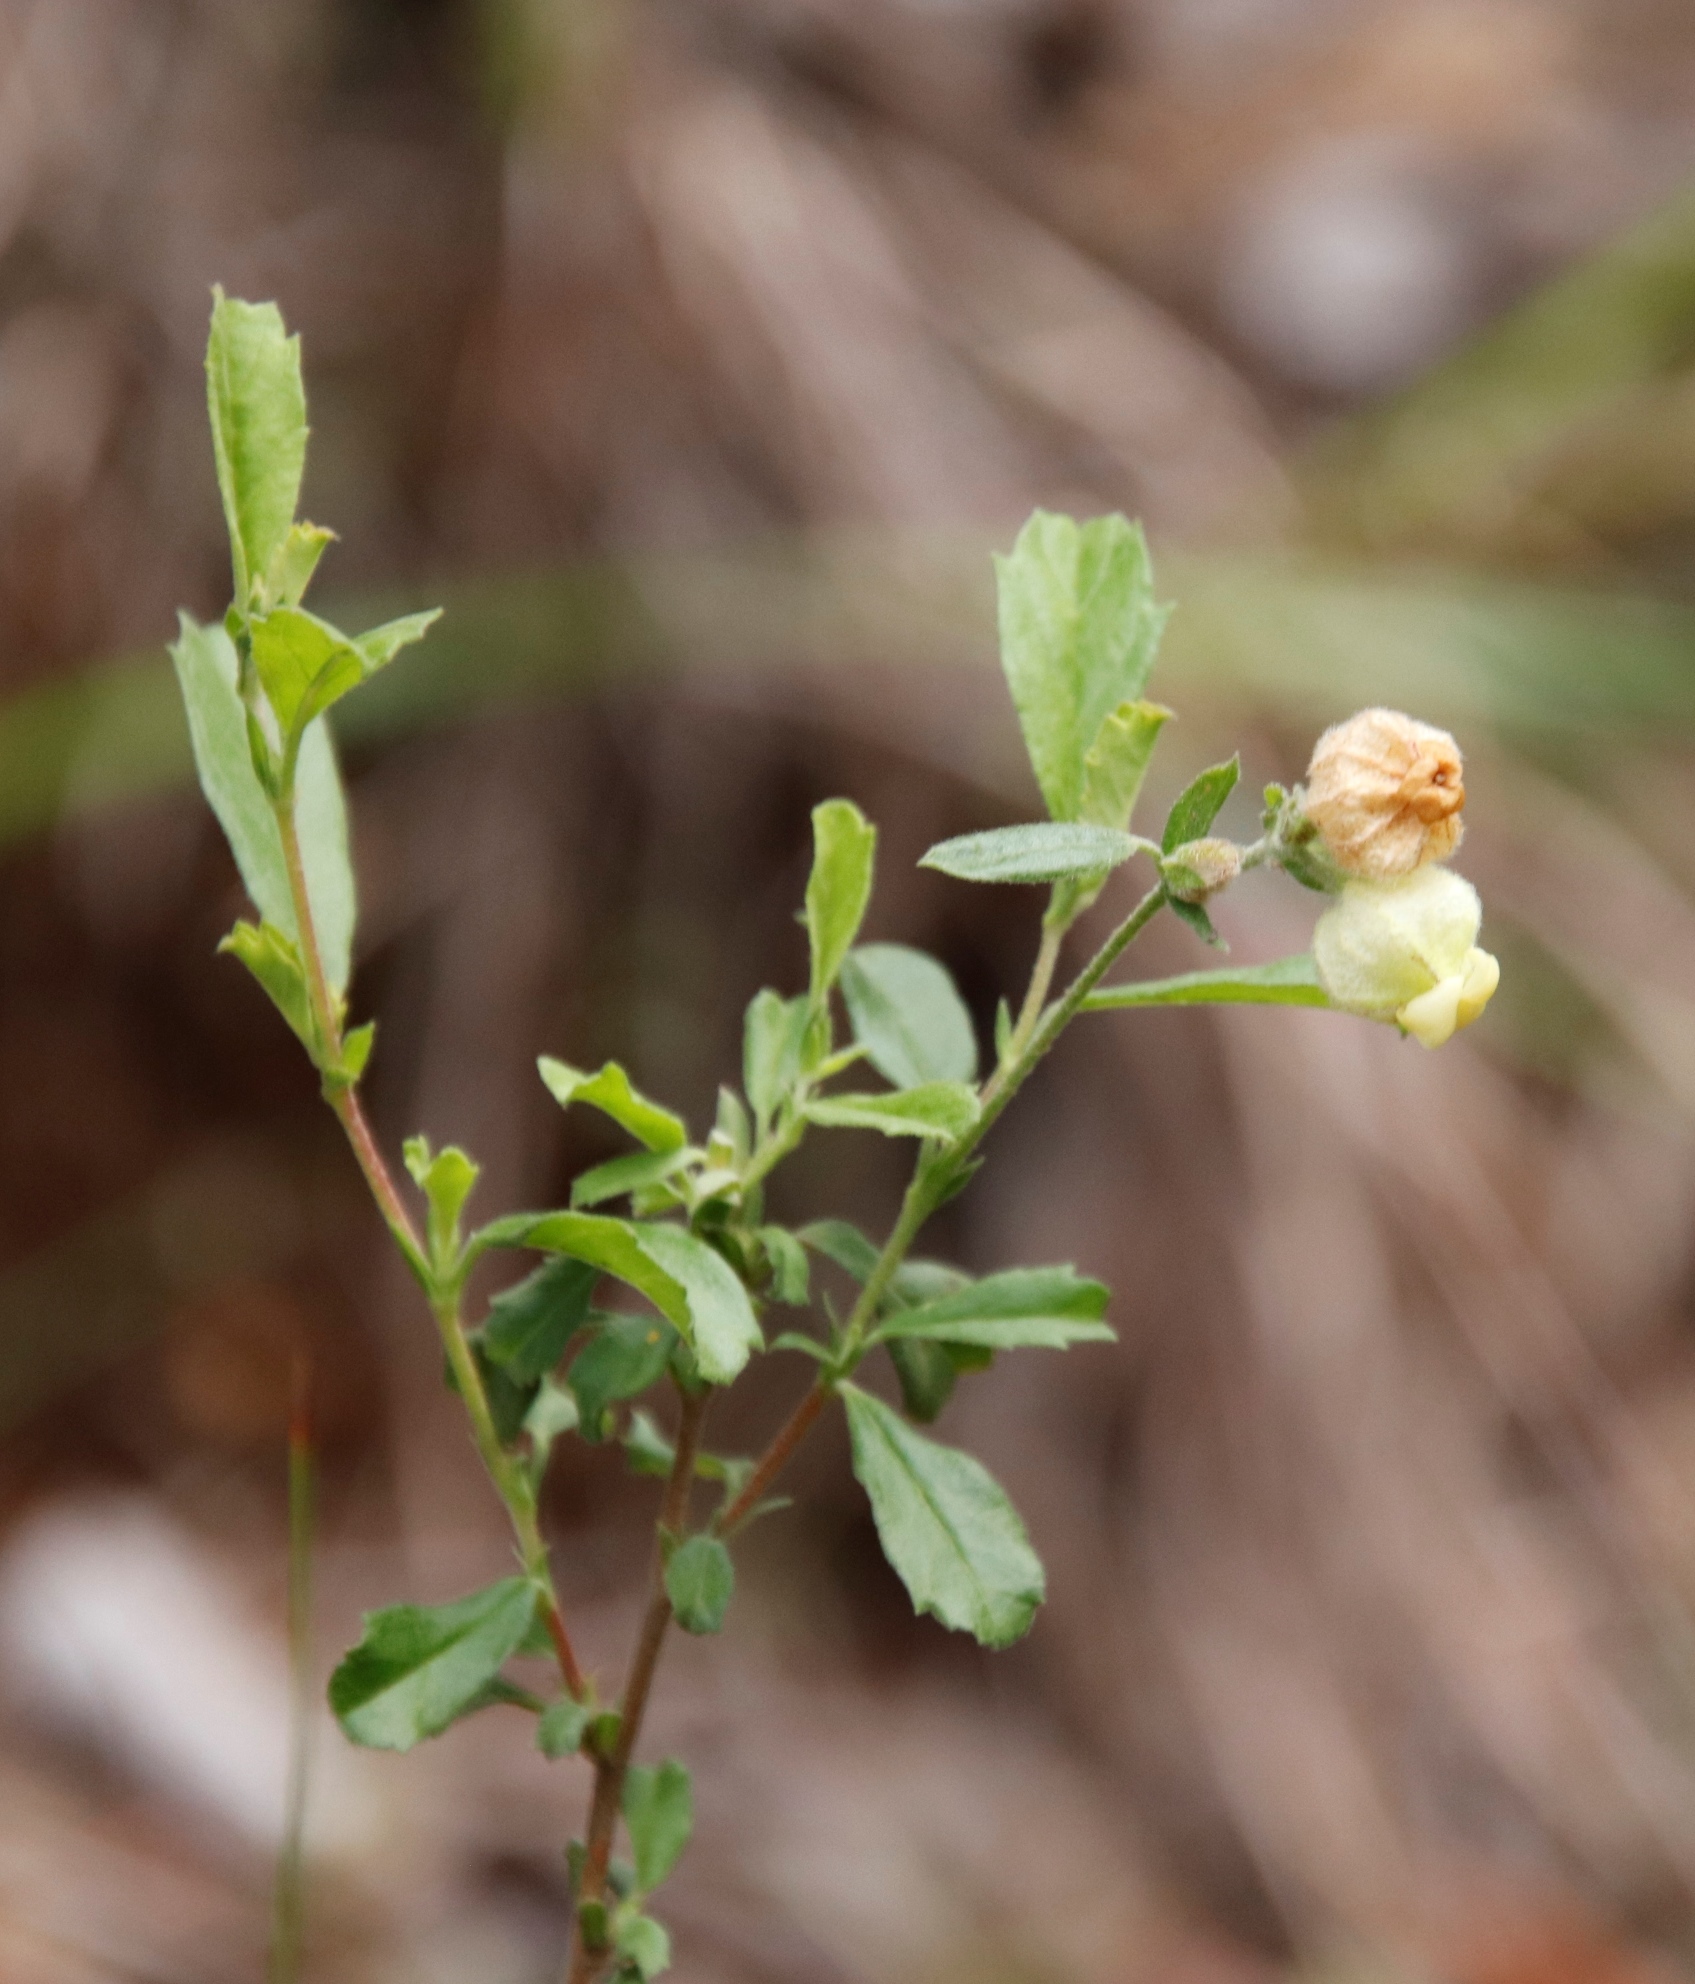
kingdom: Plantae
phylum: Tracheophyta
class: Magnoliopsida
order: Malvales
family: Malvaceae
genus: Hermannia
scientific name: Hermannia hyssopifolia
